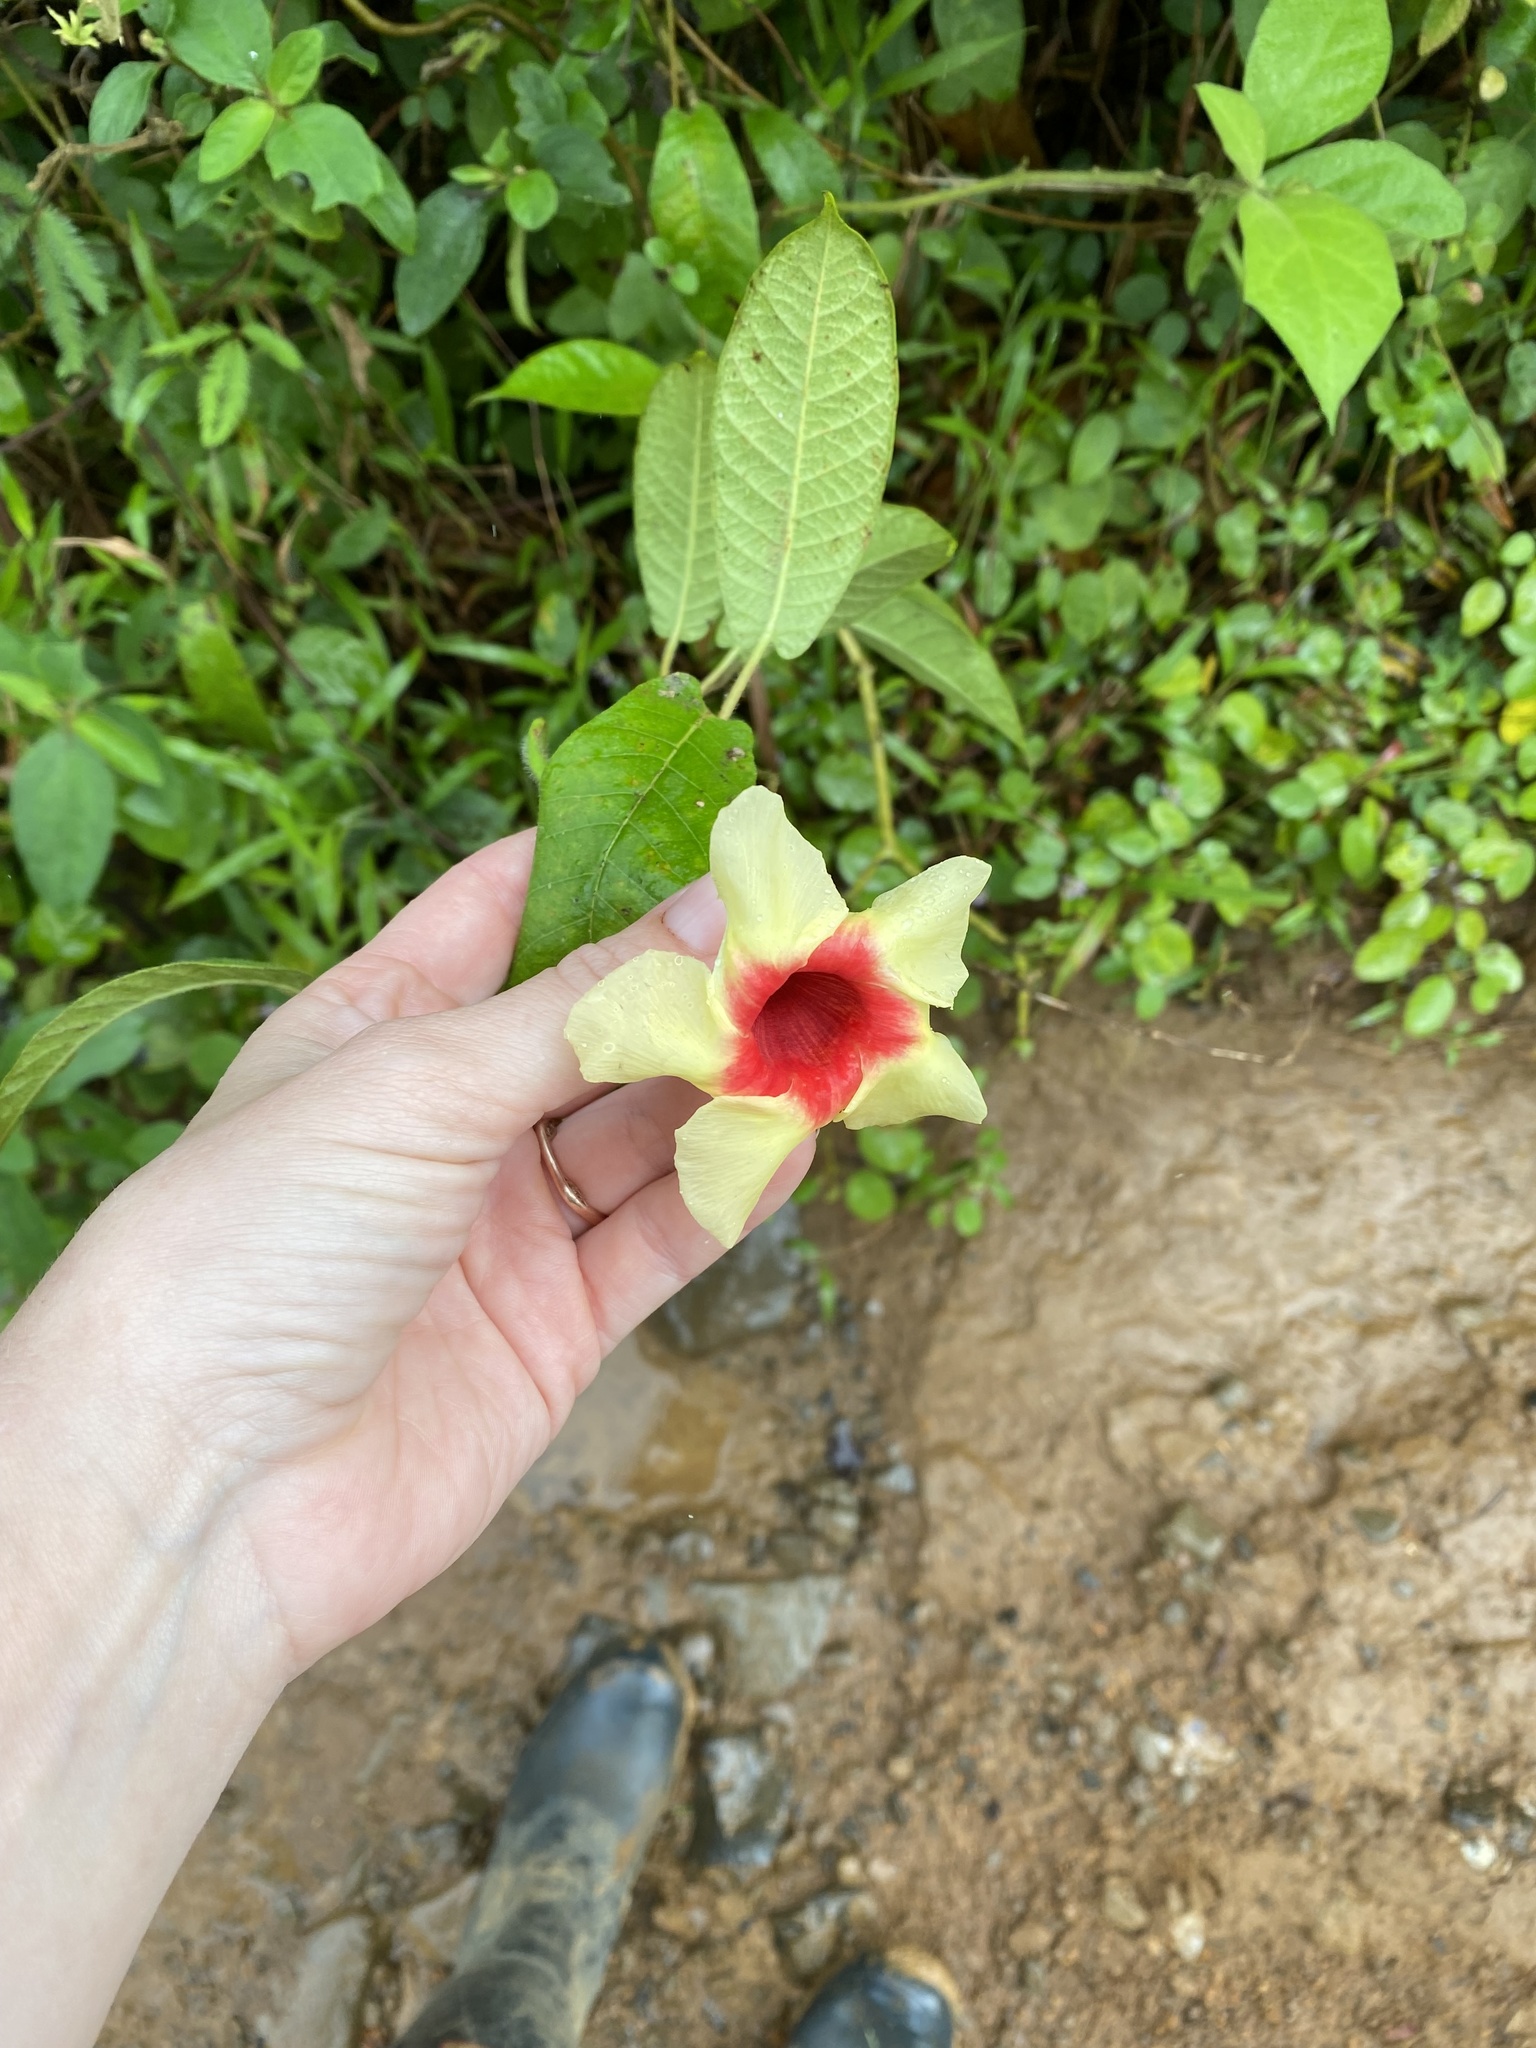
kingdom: Plantae
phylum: Tracheophyta
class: Magnoliopsida
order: Gentianales
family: Apocynaceae
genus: Mandevilla
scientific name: Mandevilla hirsuta
